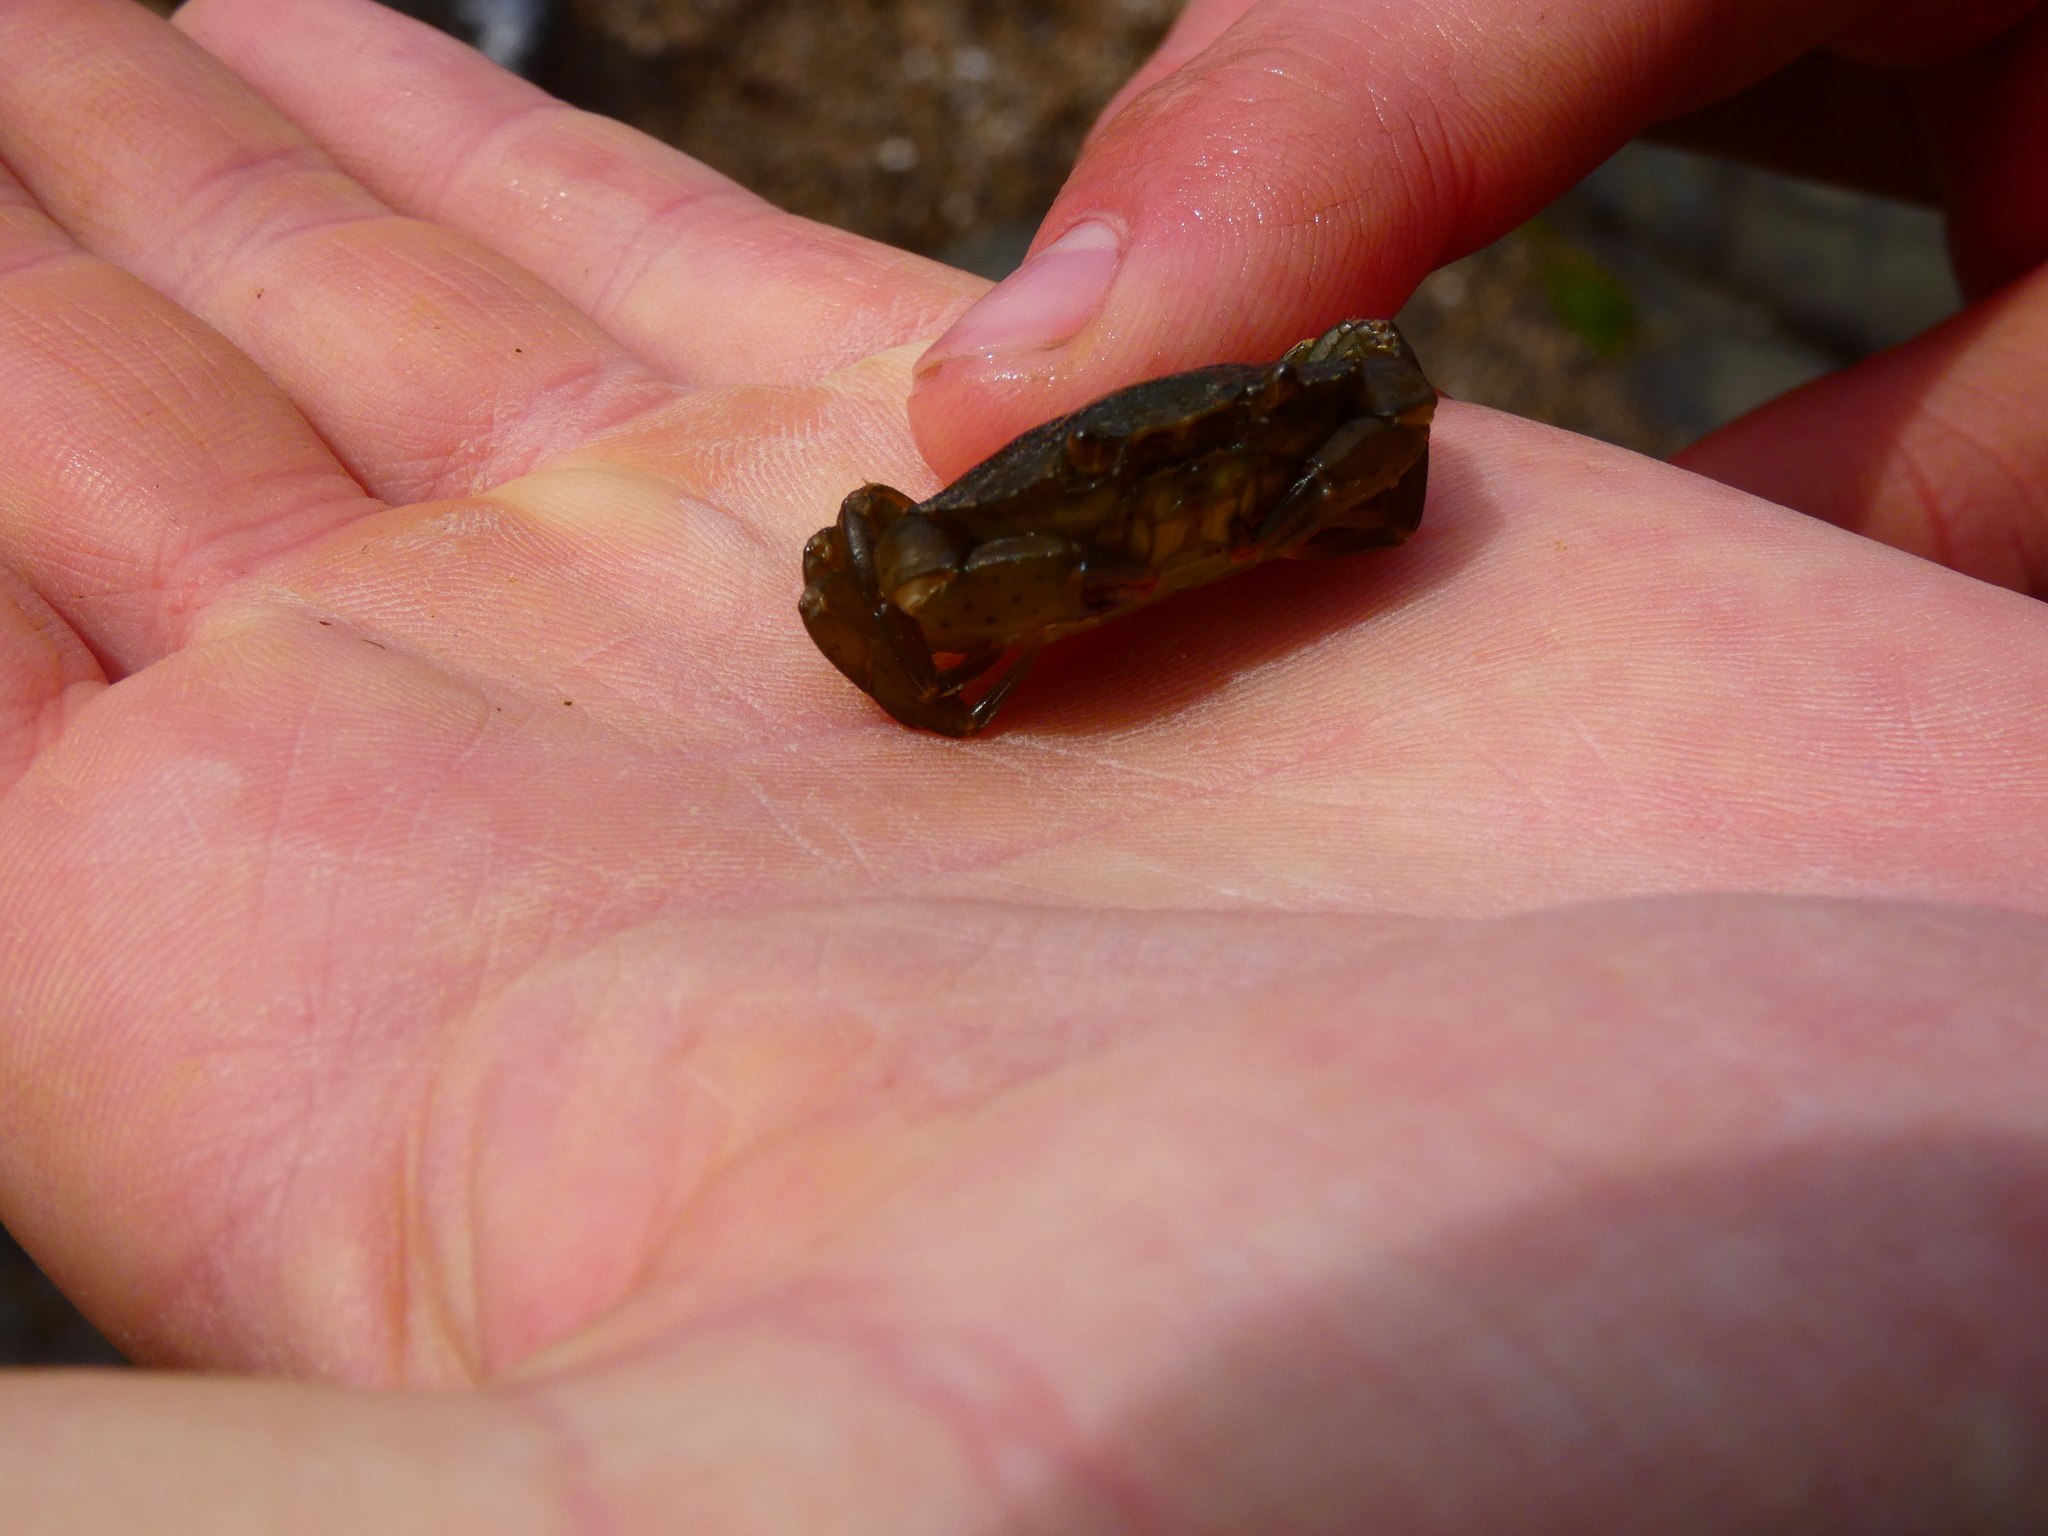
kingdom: Animalia
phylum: Arthropoda
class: Malacostraca
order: Decapoda
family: Carcinidae
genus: Carcinus
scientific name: Carcinus maenas
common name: European green crab
